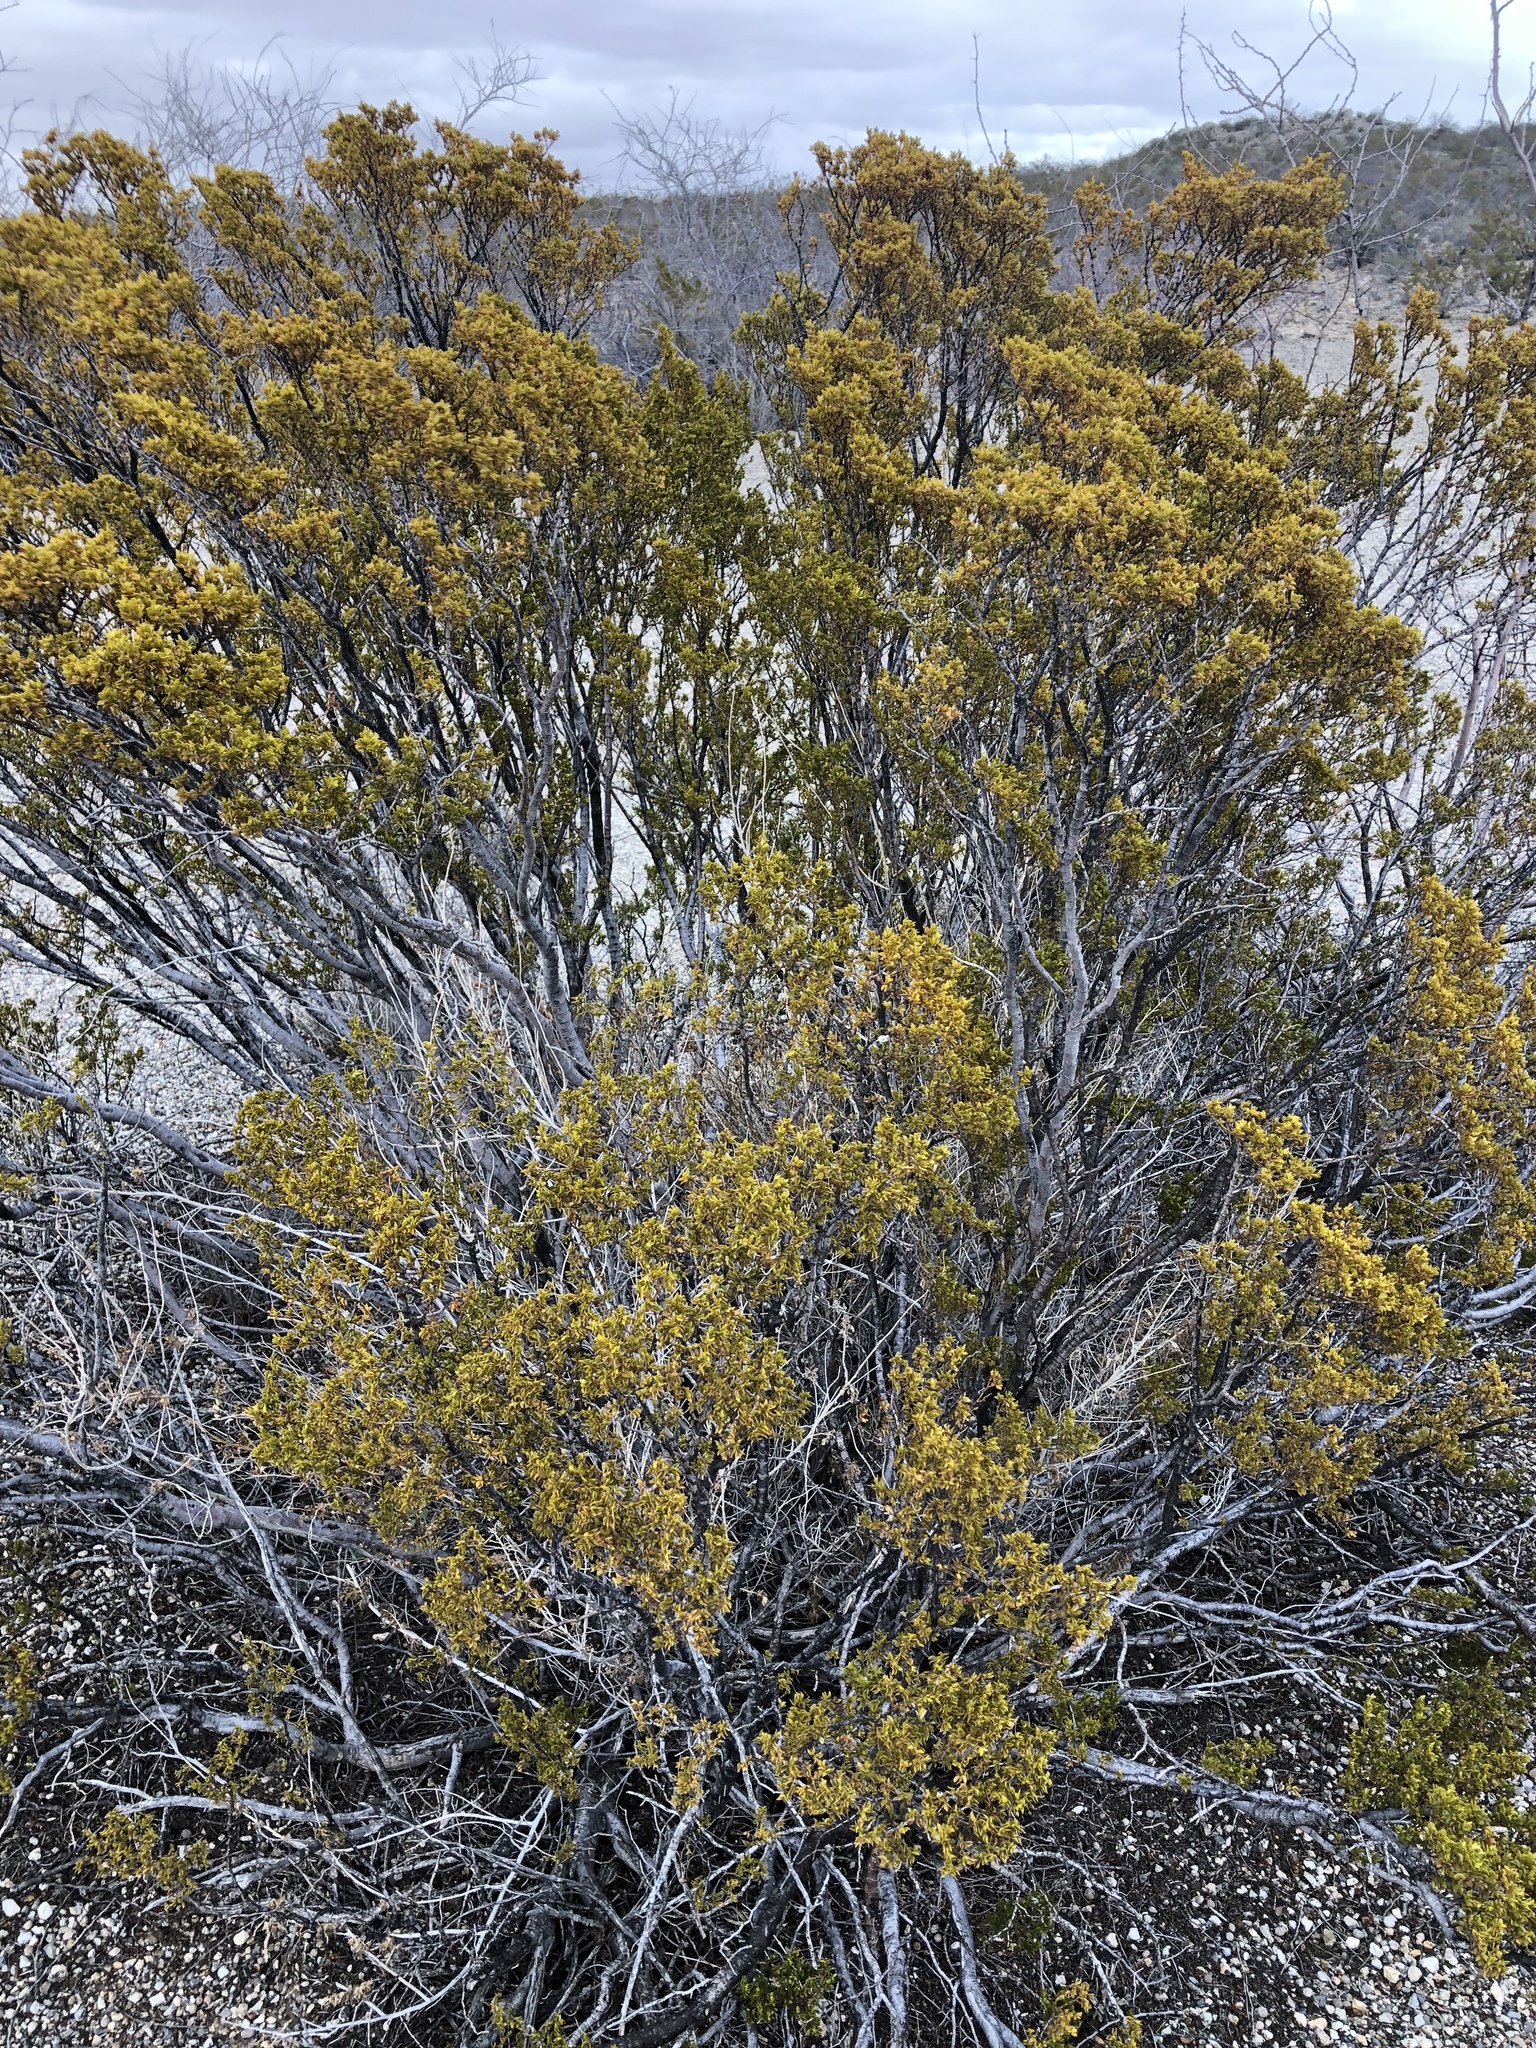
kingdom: Plantae
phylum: Tracheophyta
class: Magnoliopsida
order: Zygophyllales
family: Zygophyllaceae
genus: Larrea
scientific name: Larrea tridentata
